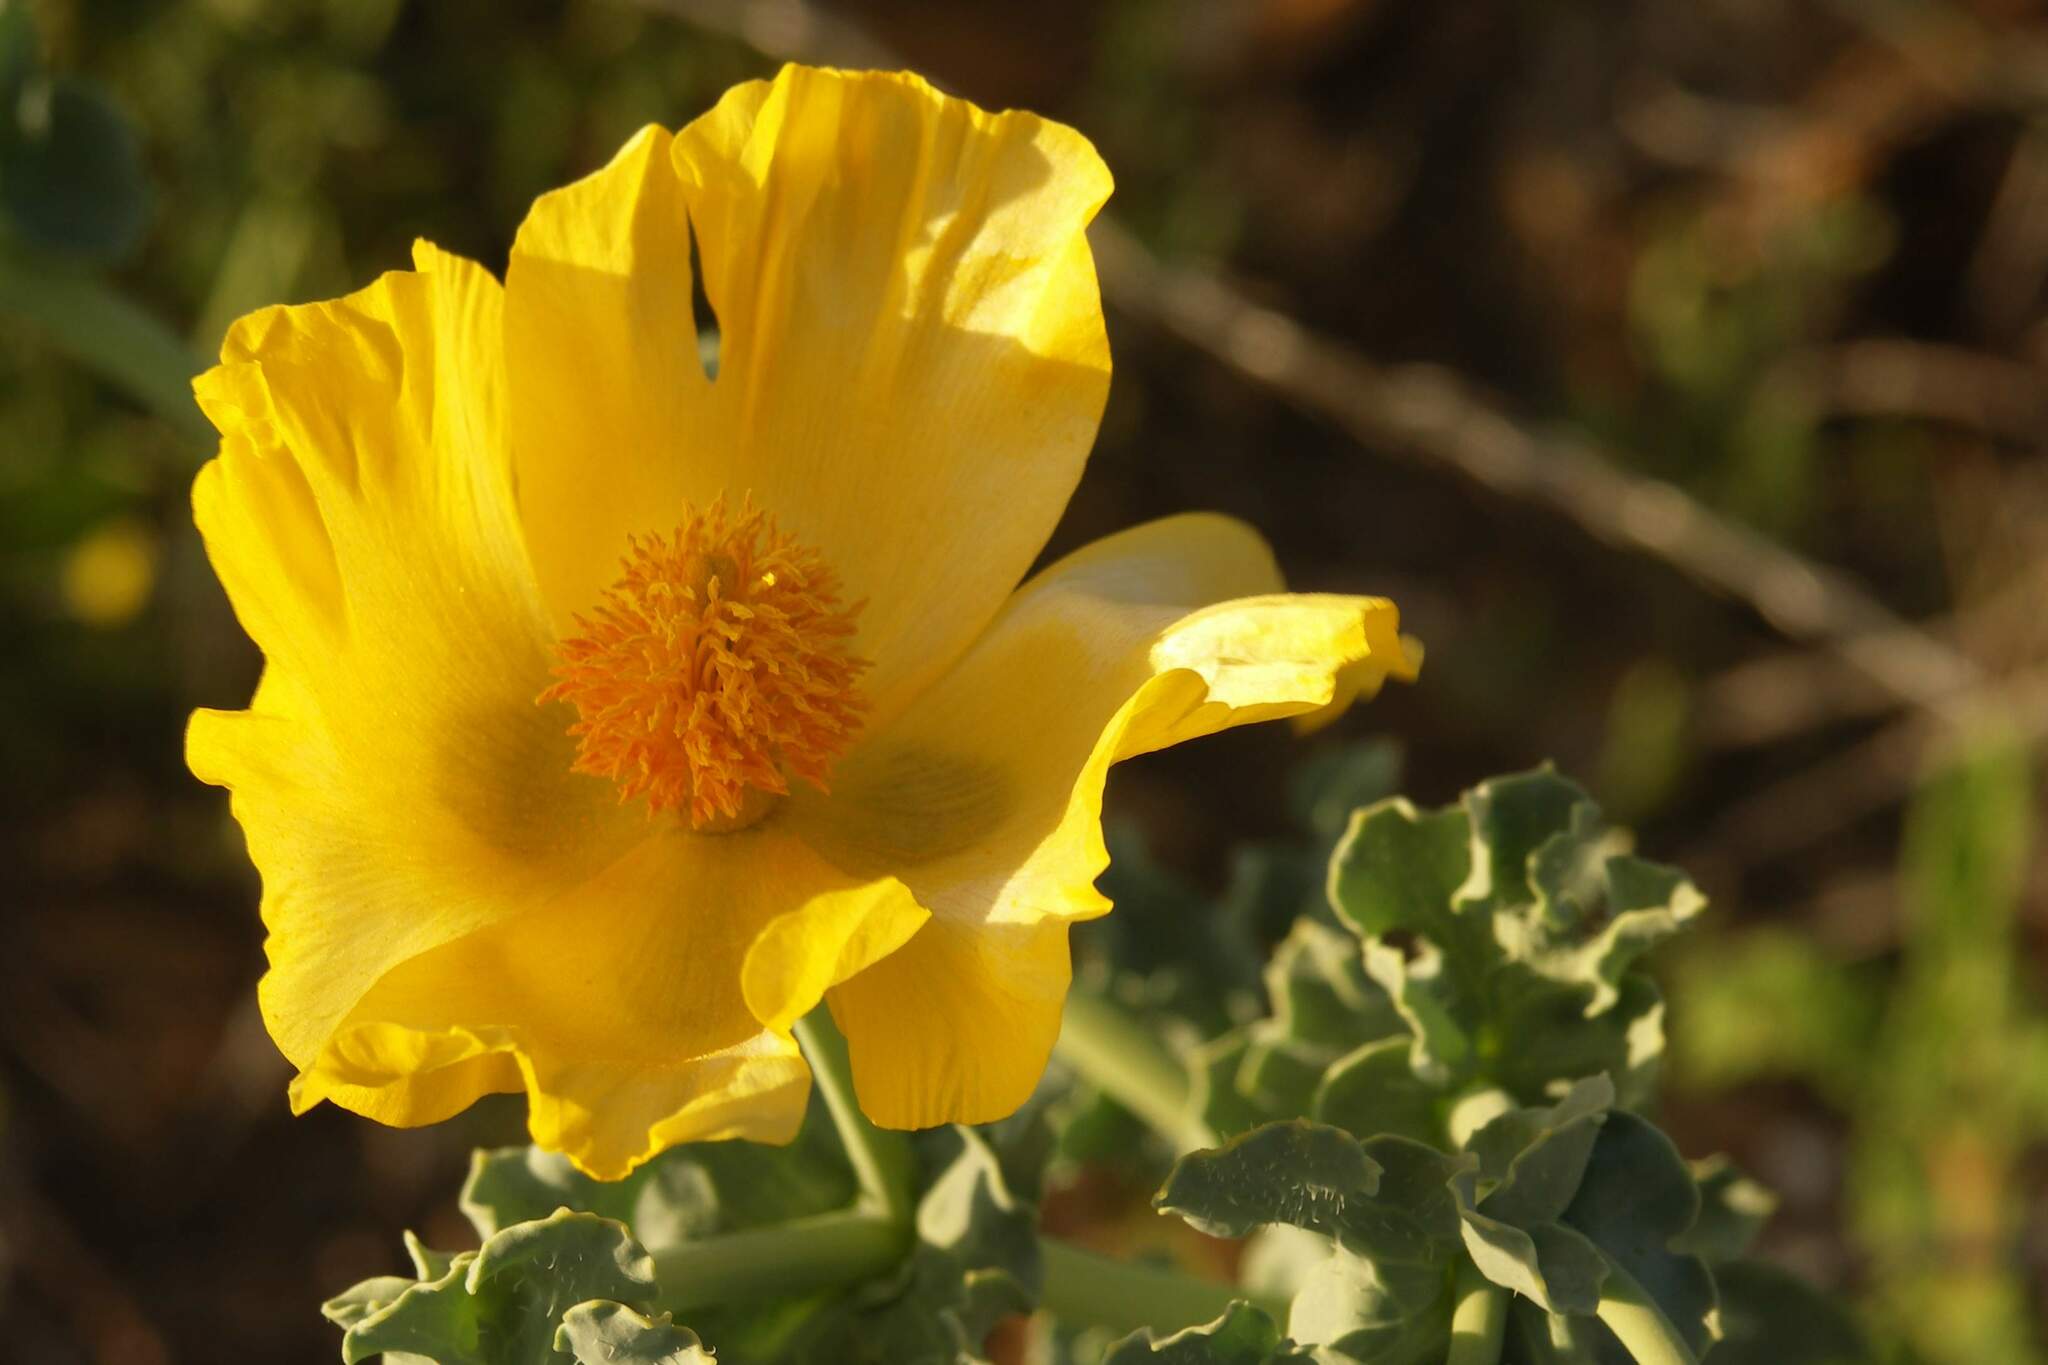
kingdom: Plantae
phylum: Tracheophyta
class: Magnoliopsida
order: Ranunculales
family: Papaveraceae
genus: Glaucium
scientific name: Glaucium flavum
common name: Yellow horned-poppy
